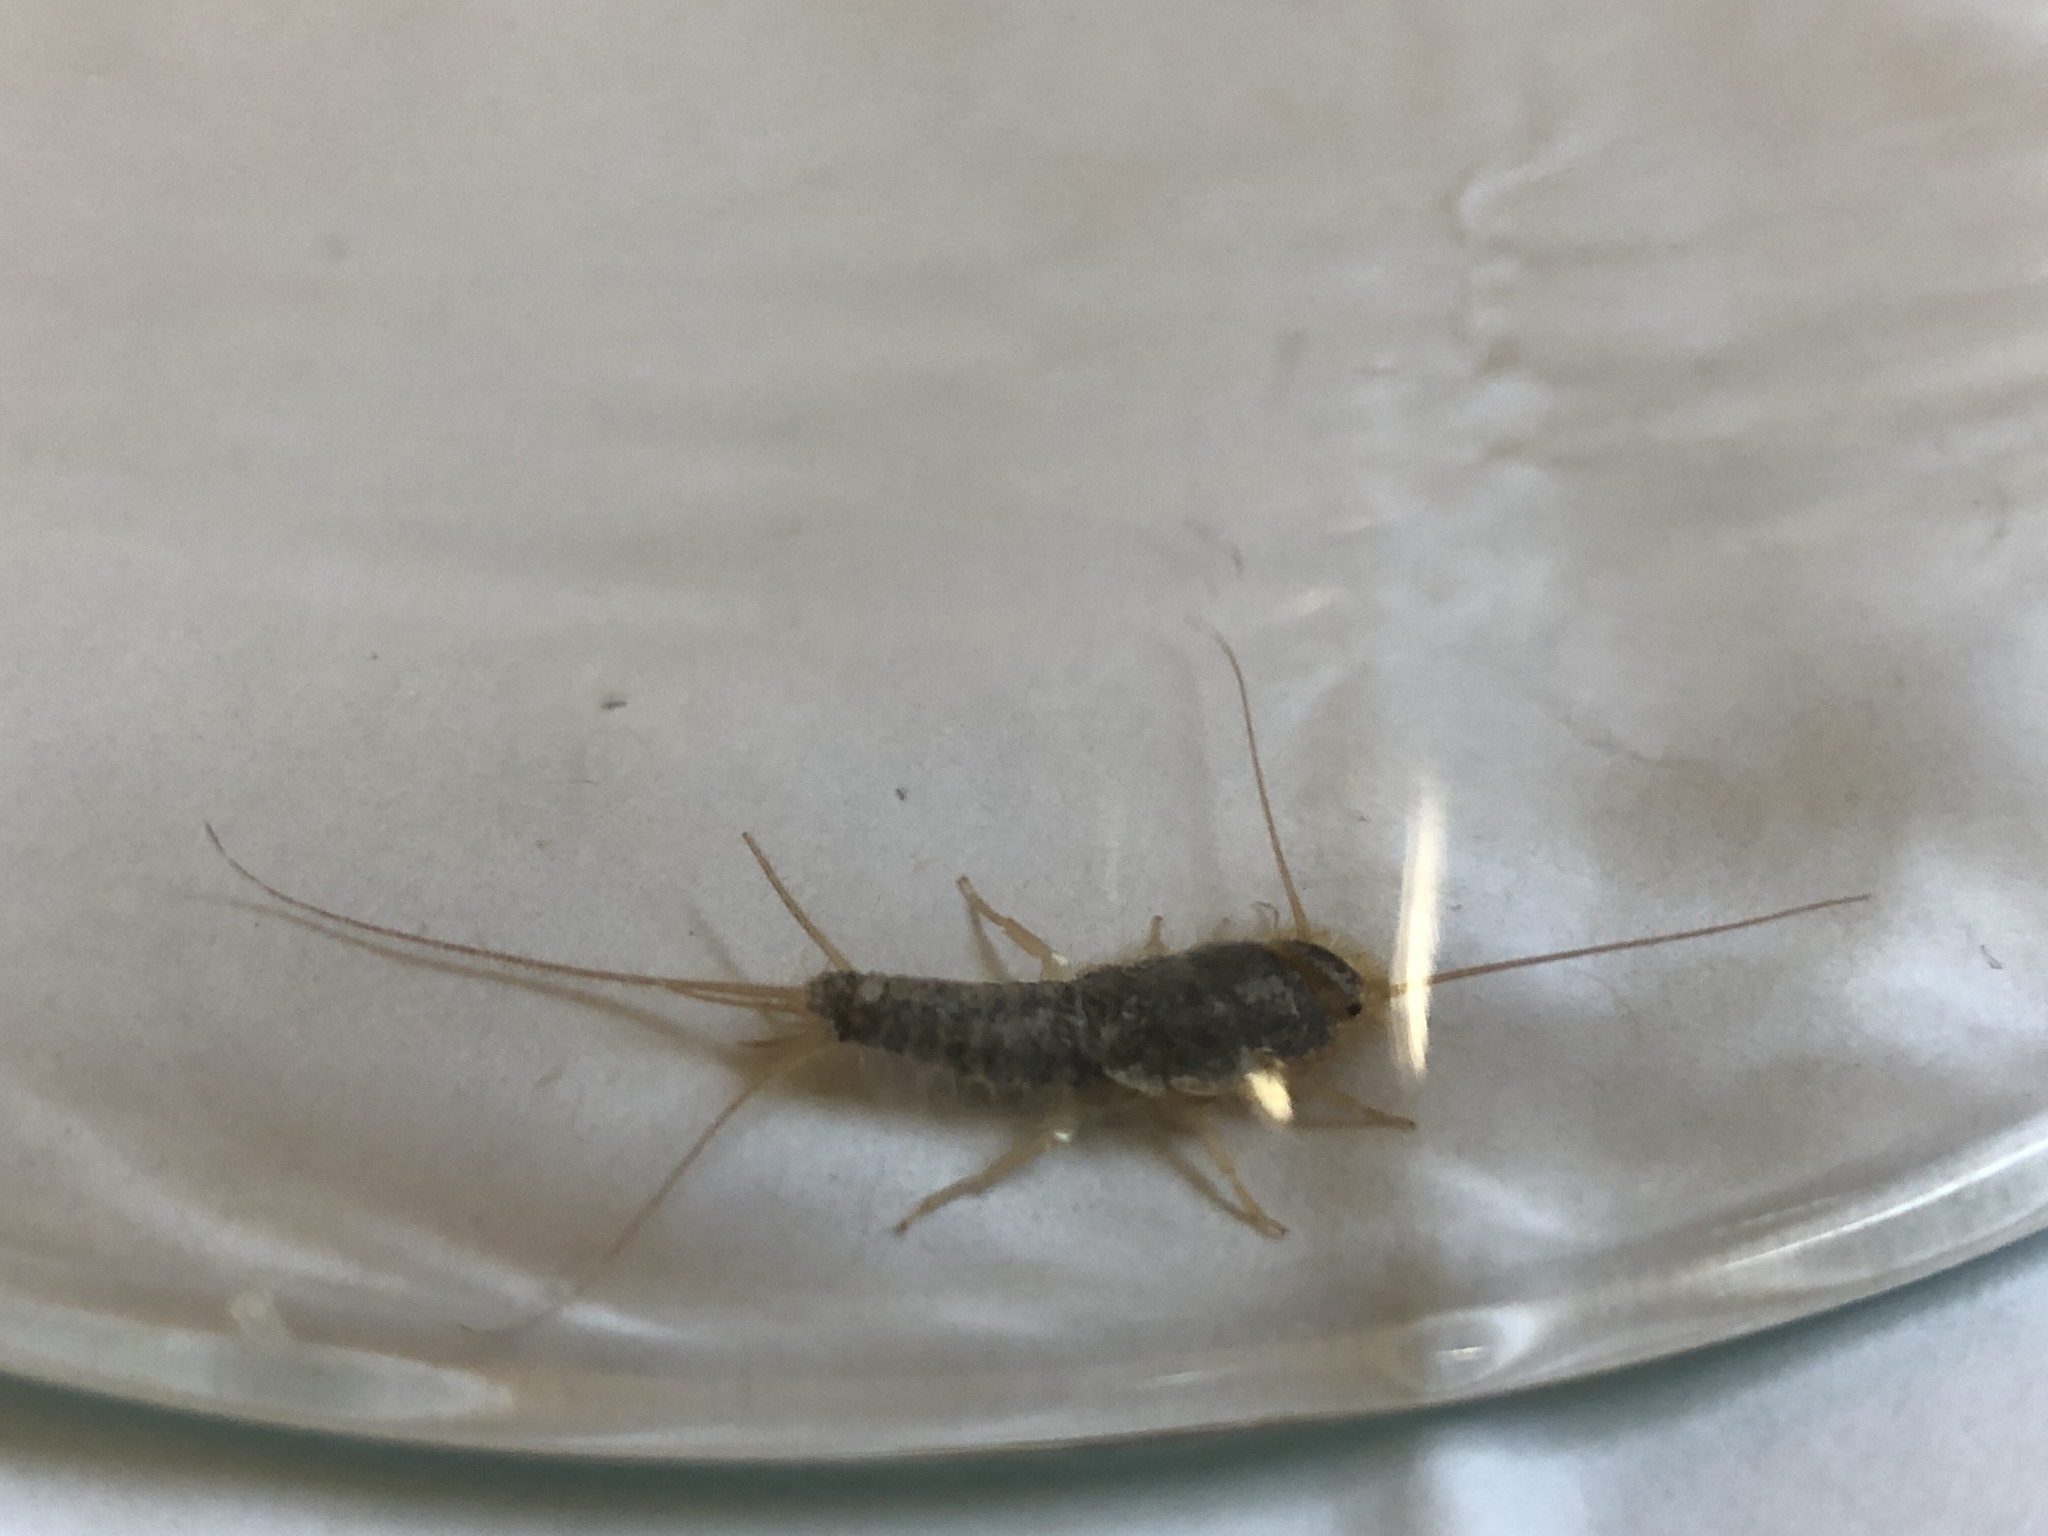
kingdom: Animalia
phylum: Arthropoda
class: Insecta
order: Zygentoma
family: Lepismatidae
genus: Ctenolepisma
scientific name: Ctenolepisma longicaudatum
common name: Silverfish
